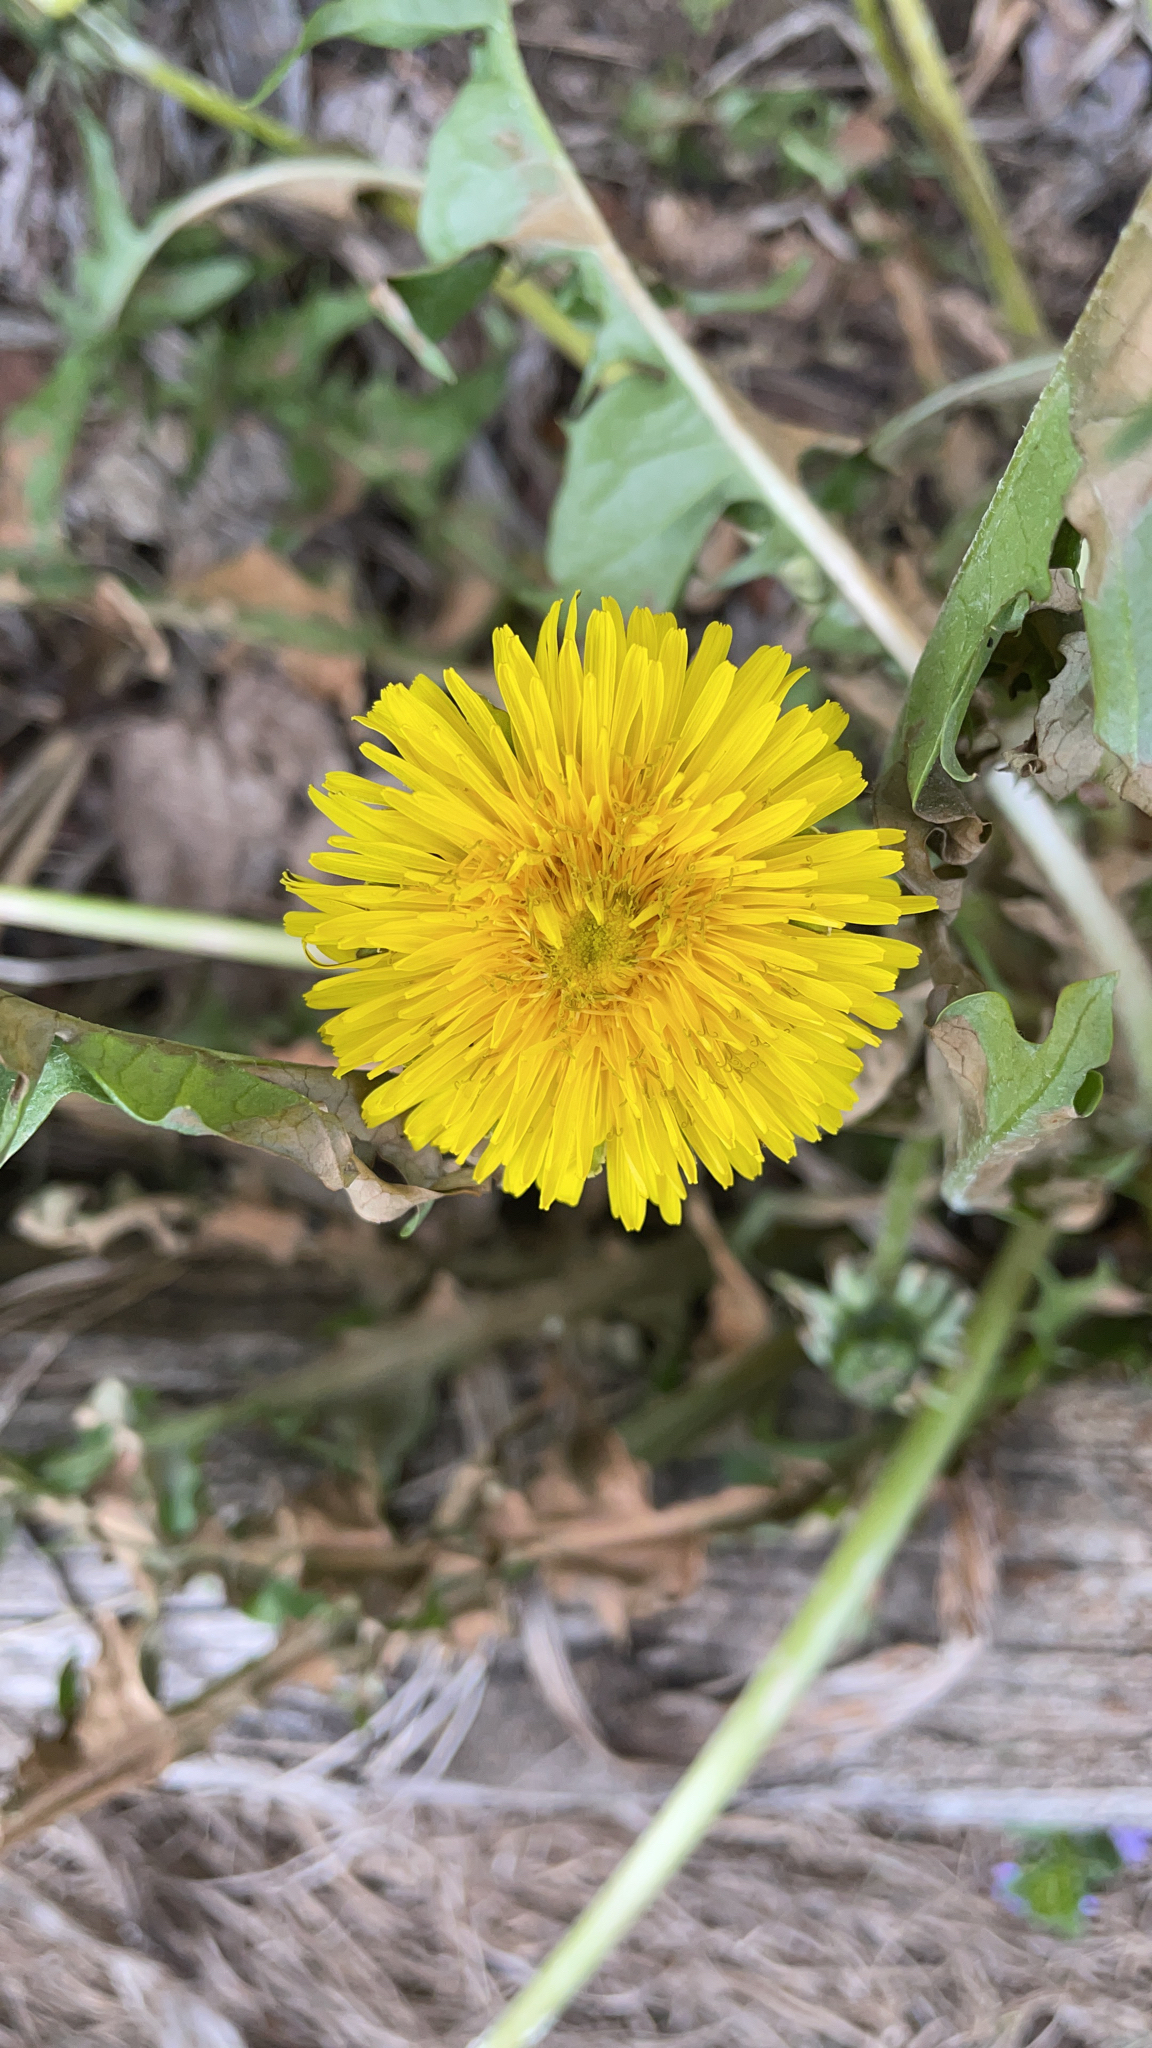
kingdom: Plantae
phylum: Tracheophyta
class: Magnoliopsida
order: Asterales
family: Asteraceae
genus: Taraxacum
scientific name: Taraxacum officinale
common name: Common dandelion
